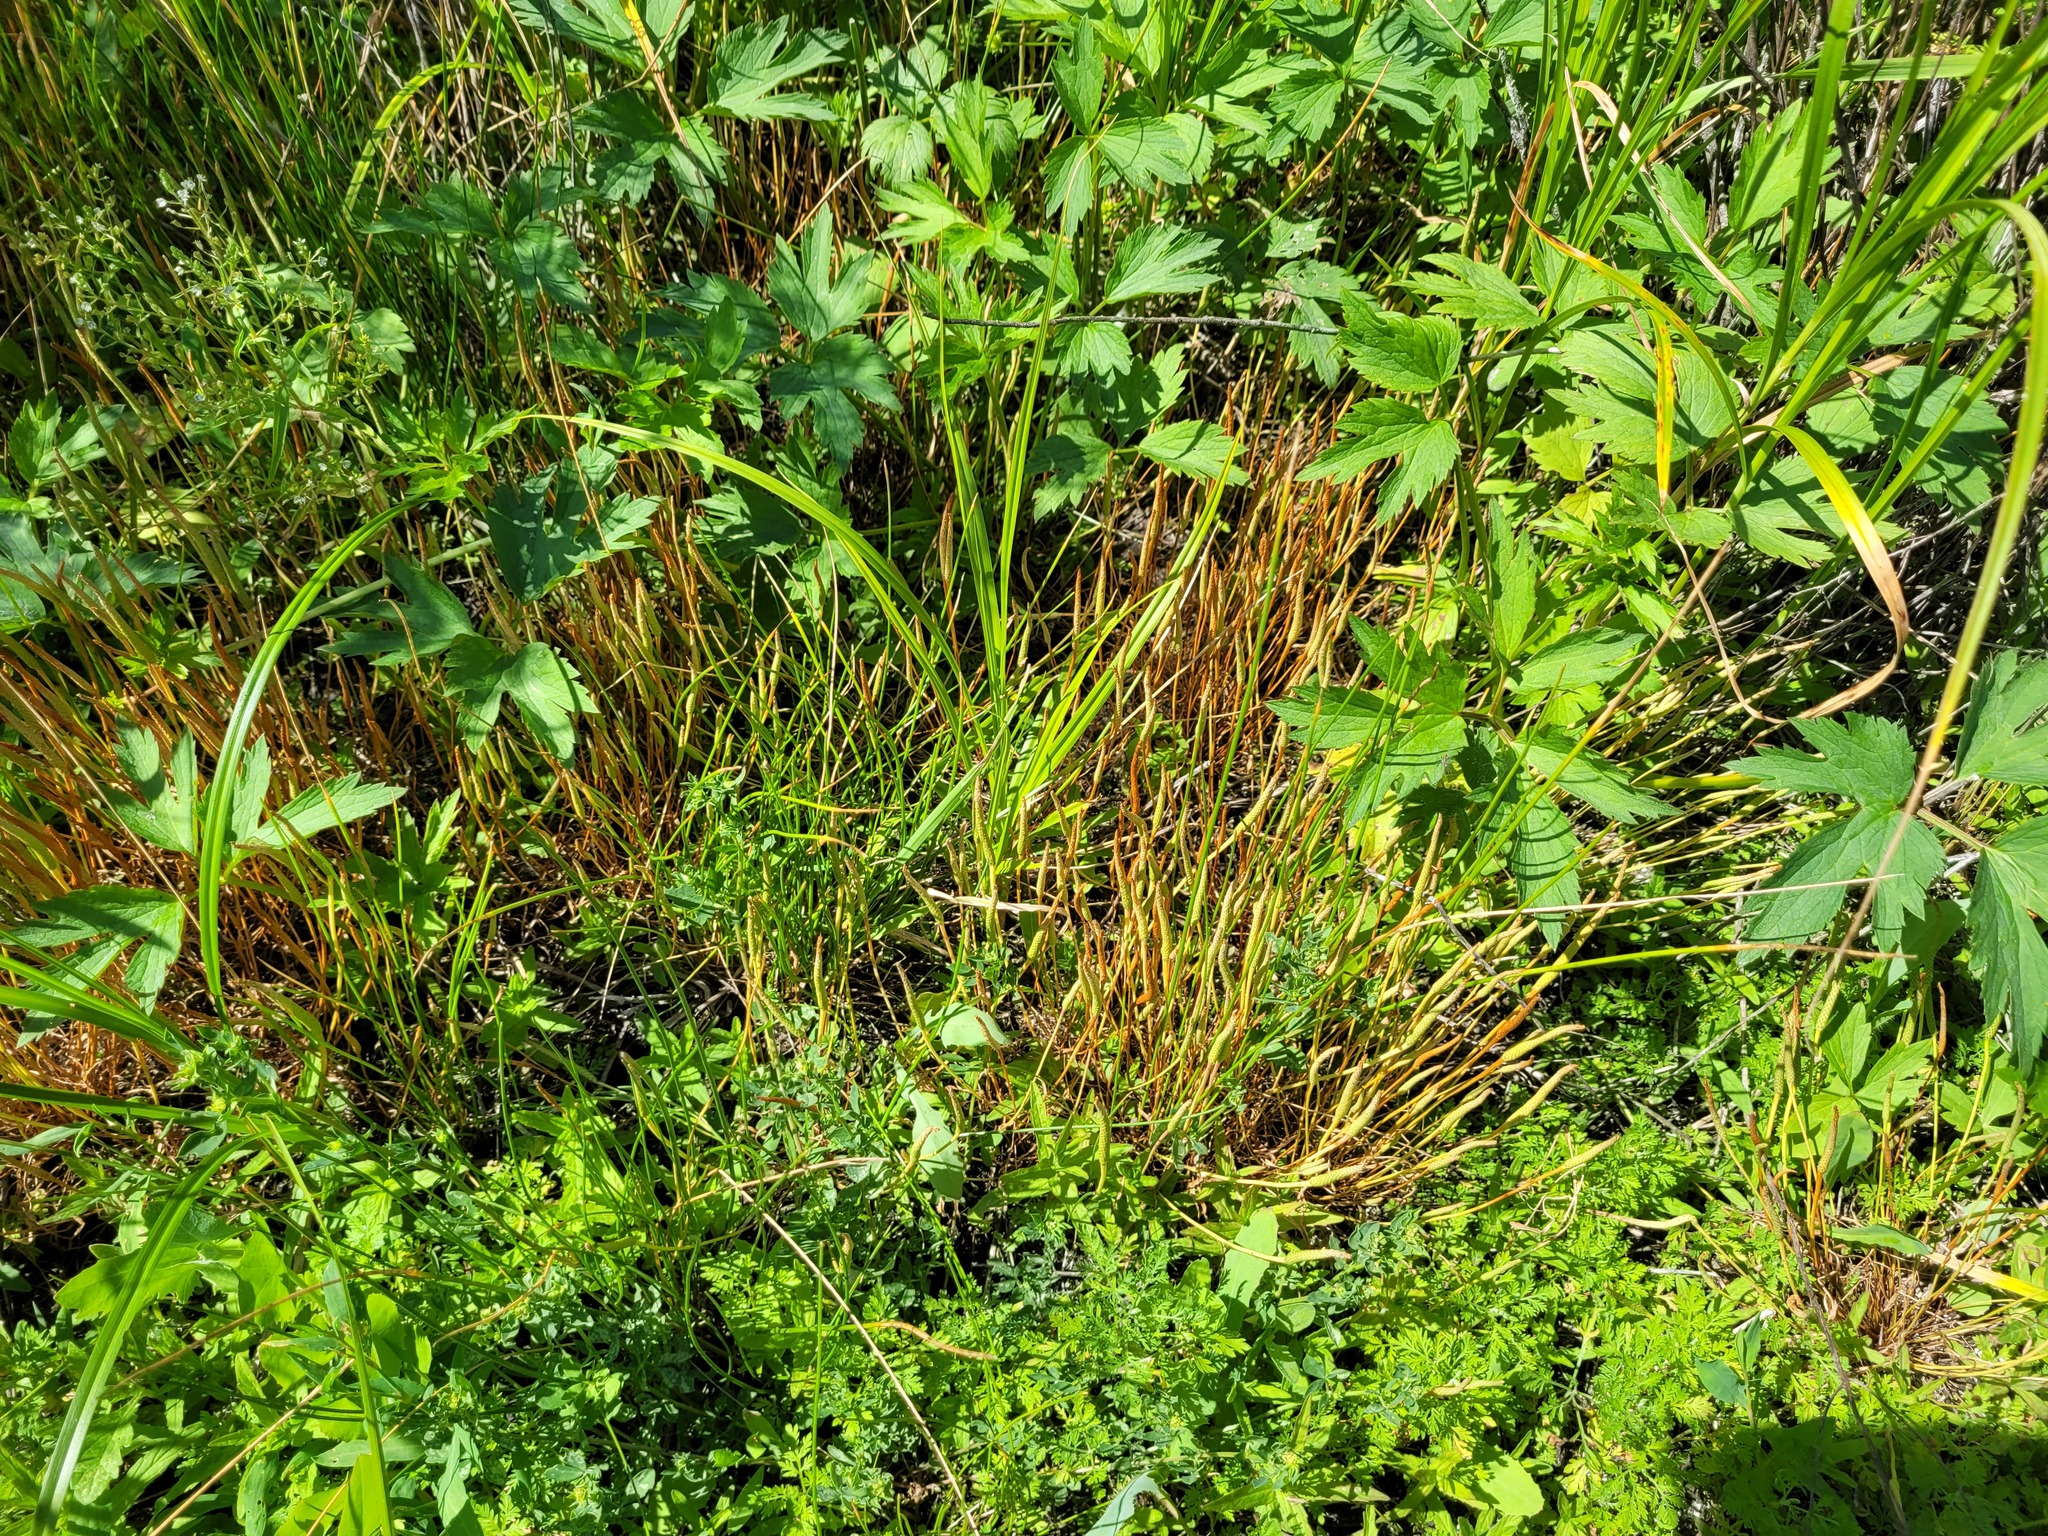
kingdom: Plantae
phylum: Tracheophyta
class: Magnoliopsida
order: Ranunculales
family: Ranunculaceae
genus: Myosurus
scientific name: Myosurus minimus
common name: Mousetail
